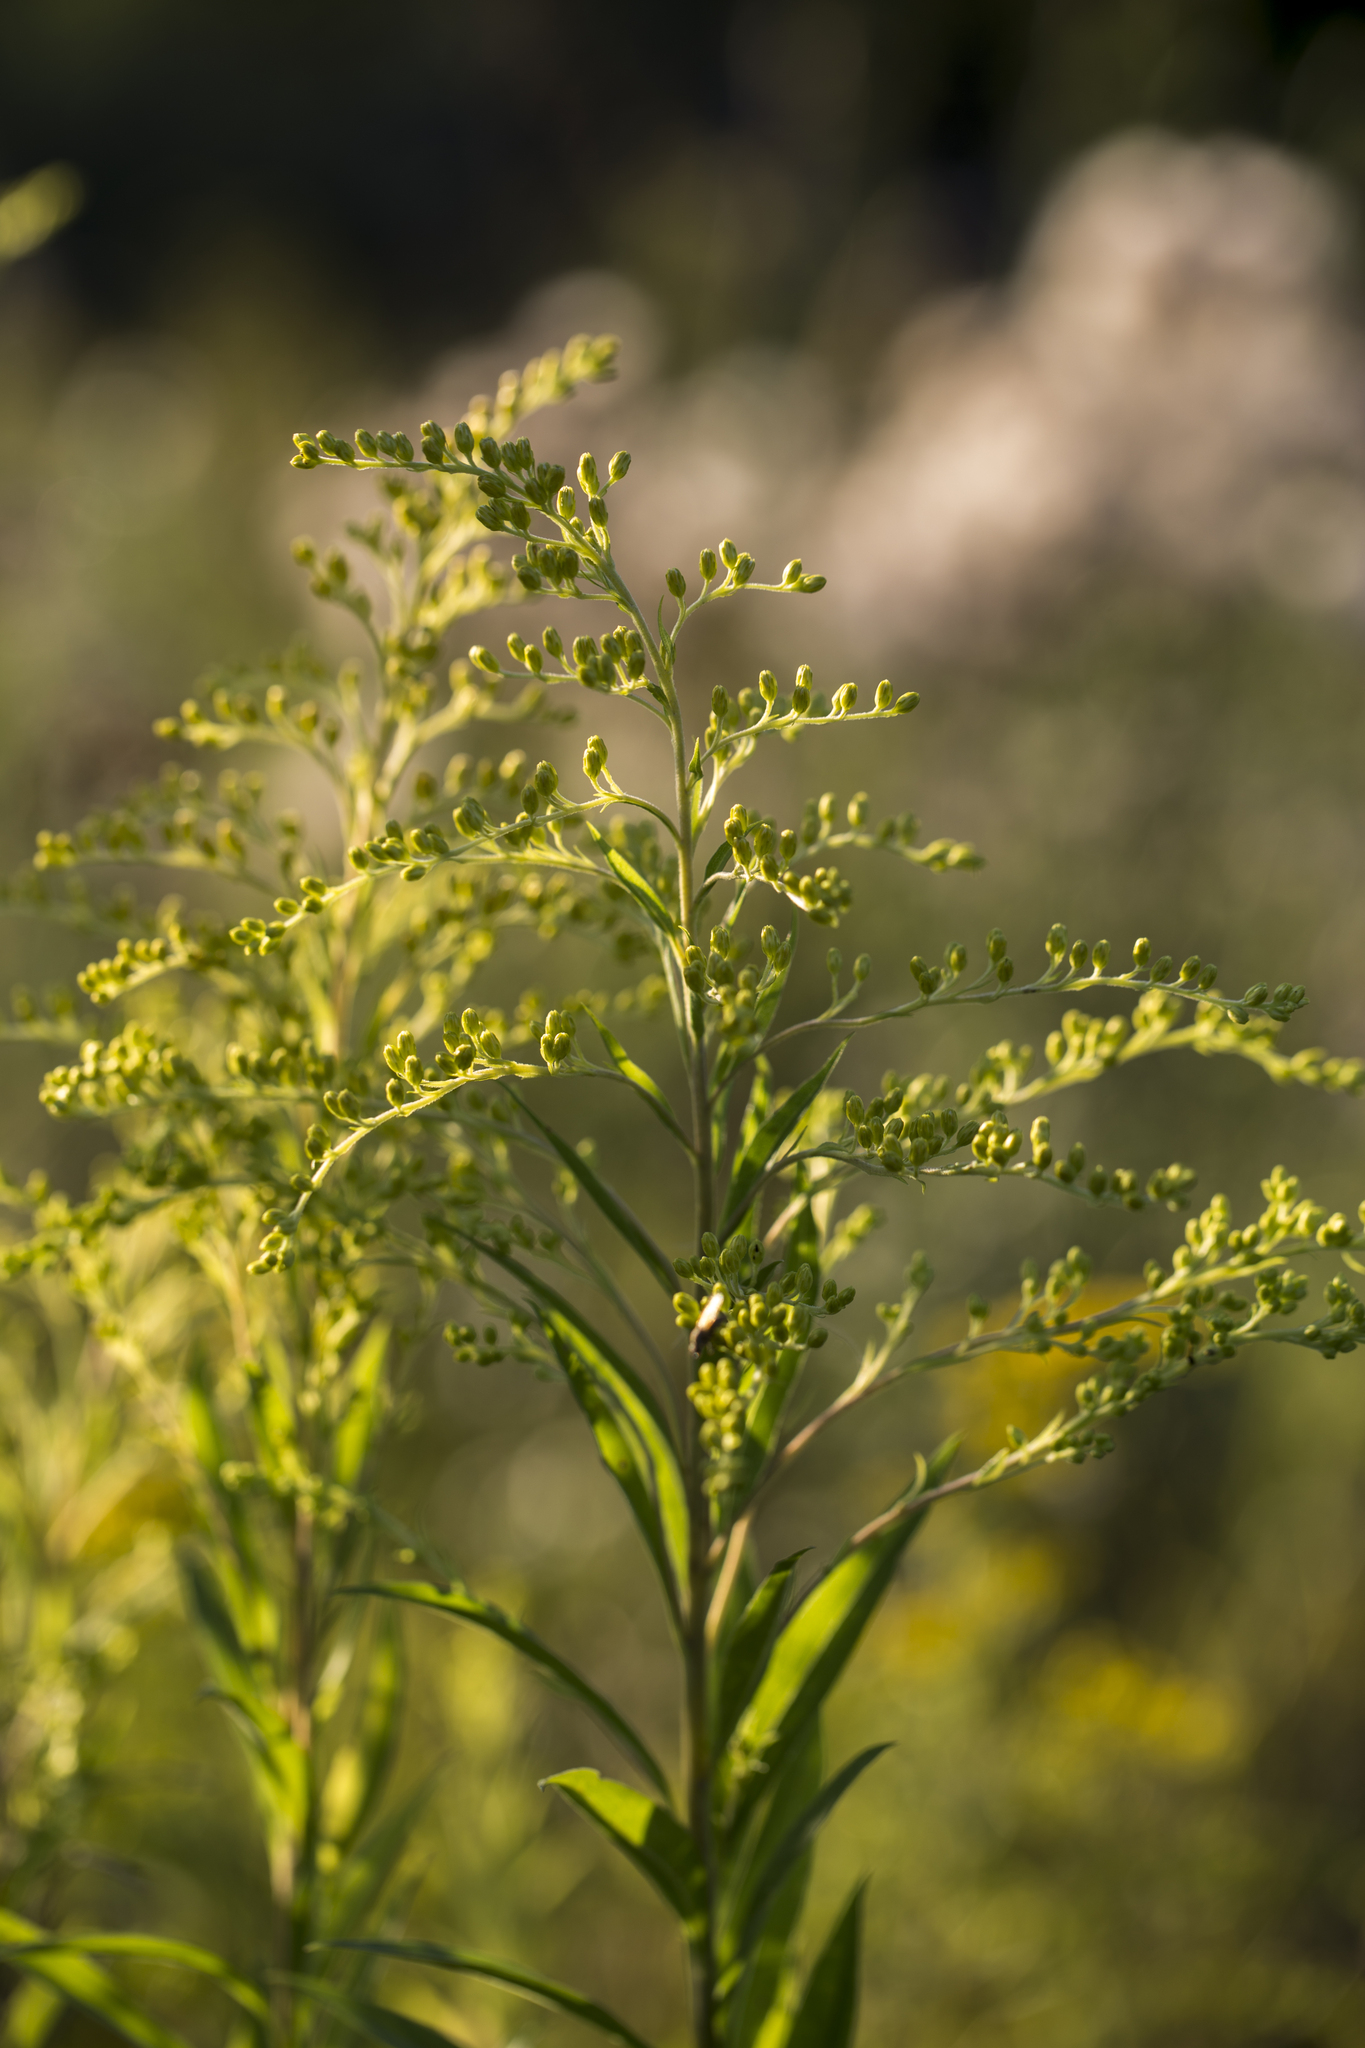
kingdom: Plantae
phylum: Tracheophyta
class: Magnoliopsida
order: Asterales
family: Asteraceae
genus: Solidago
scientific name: Solidago gigantea
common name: Giant goldenrod
